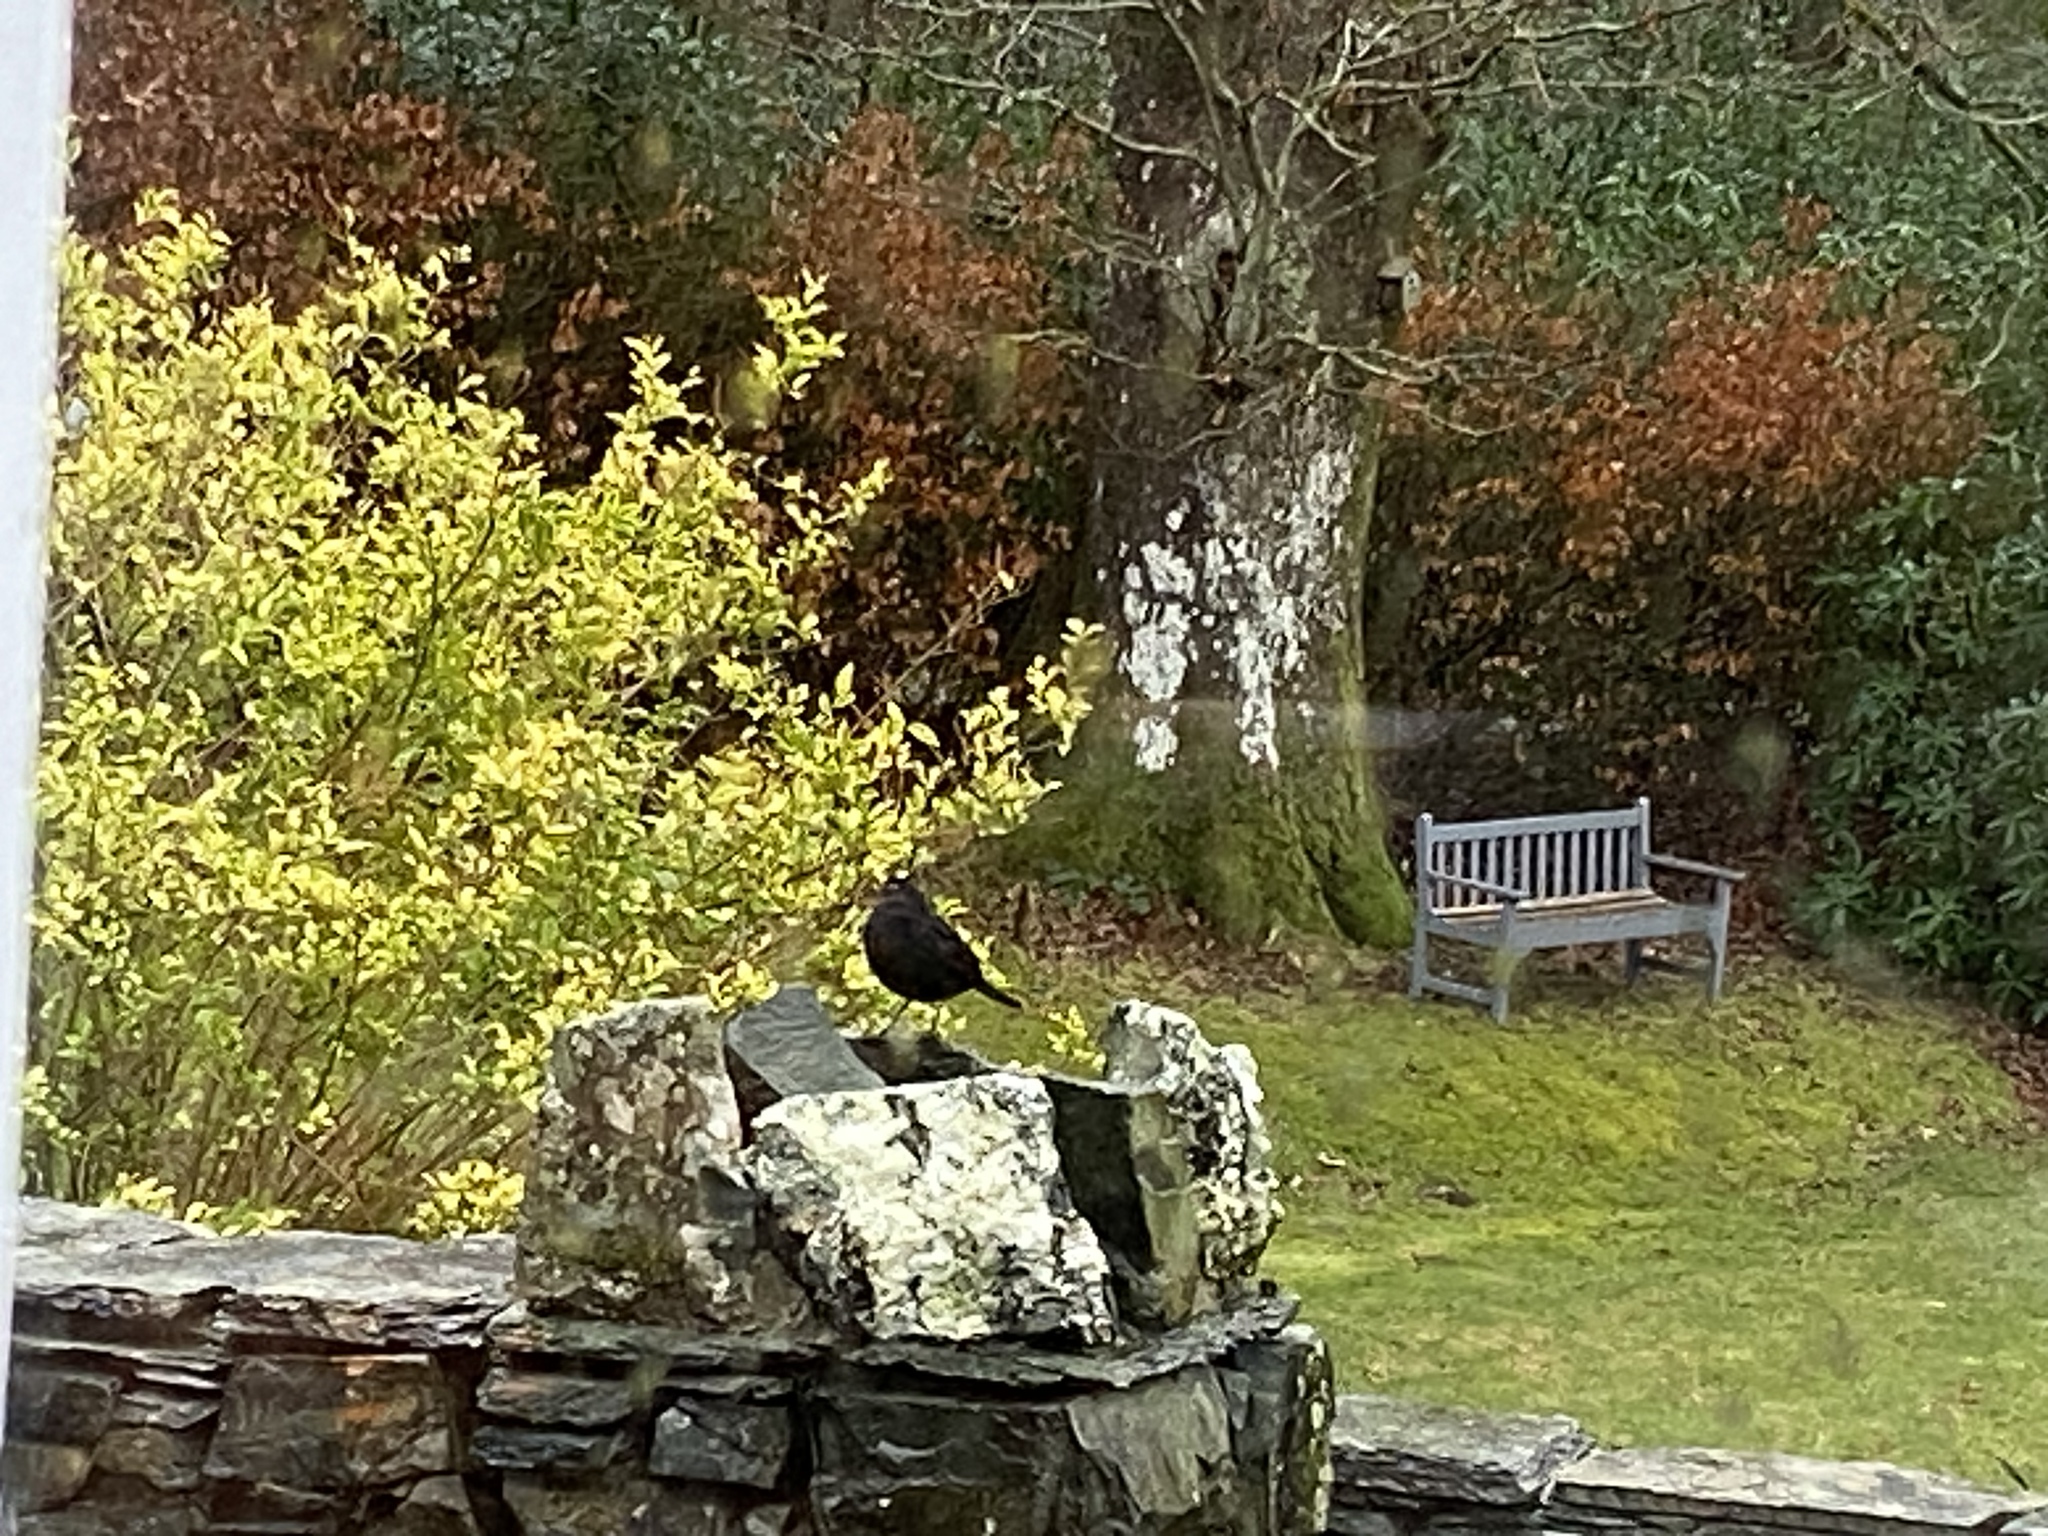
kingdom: Animalia
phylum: Chordata
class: Aves
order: Passeriformes
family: Turdidae
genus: Turdus
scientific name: Turdus merula
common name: Common blackbird
